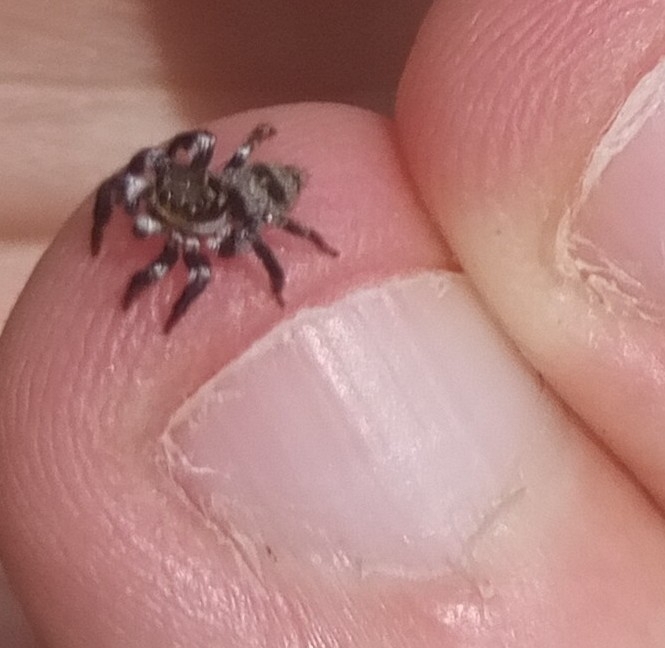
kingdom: Animalia
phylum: Arthropoda
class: Arachnida
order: Araneae
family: Salticidae
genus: Corythalia
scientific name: Corythalia conferta
